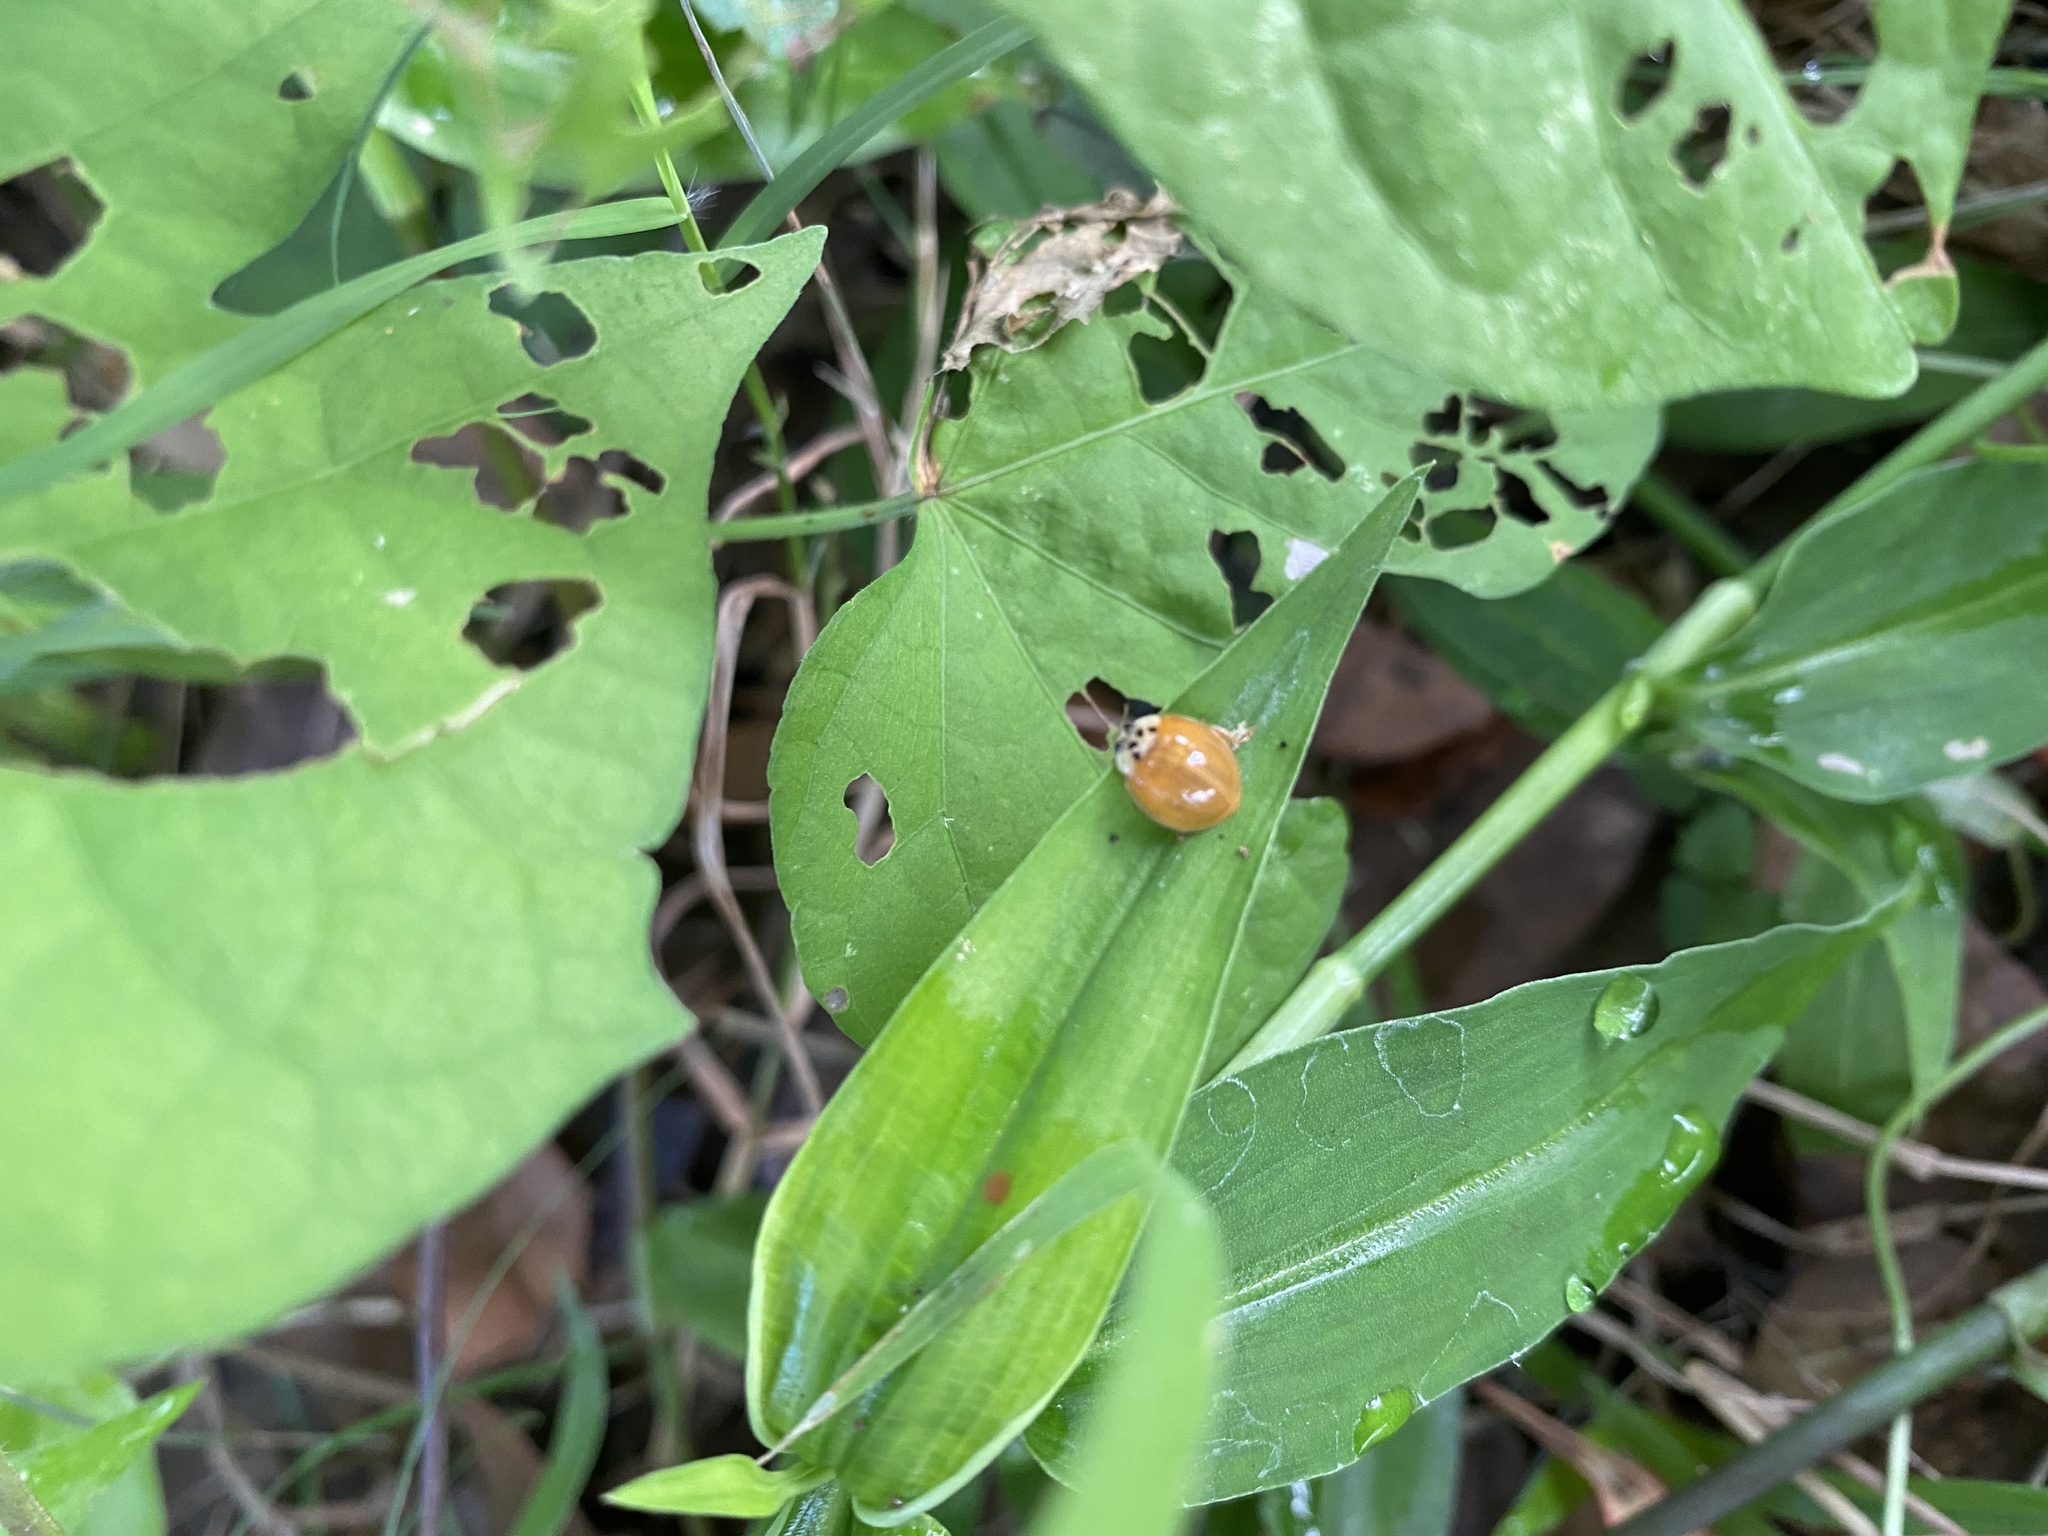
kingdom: Animalia
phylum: Arthropoda
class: Insecta
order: Coleoptera
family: Coccinellidae
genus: Harmonia
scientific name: Harmonia axyridis
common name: Harlequin ladybird
